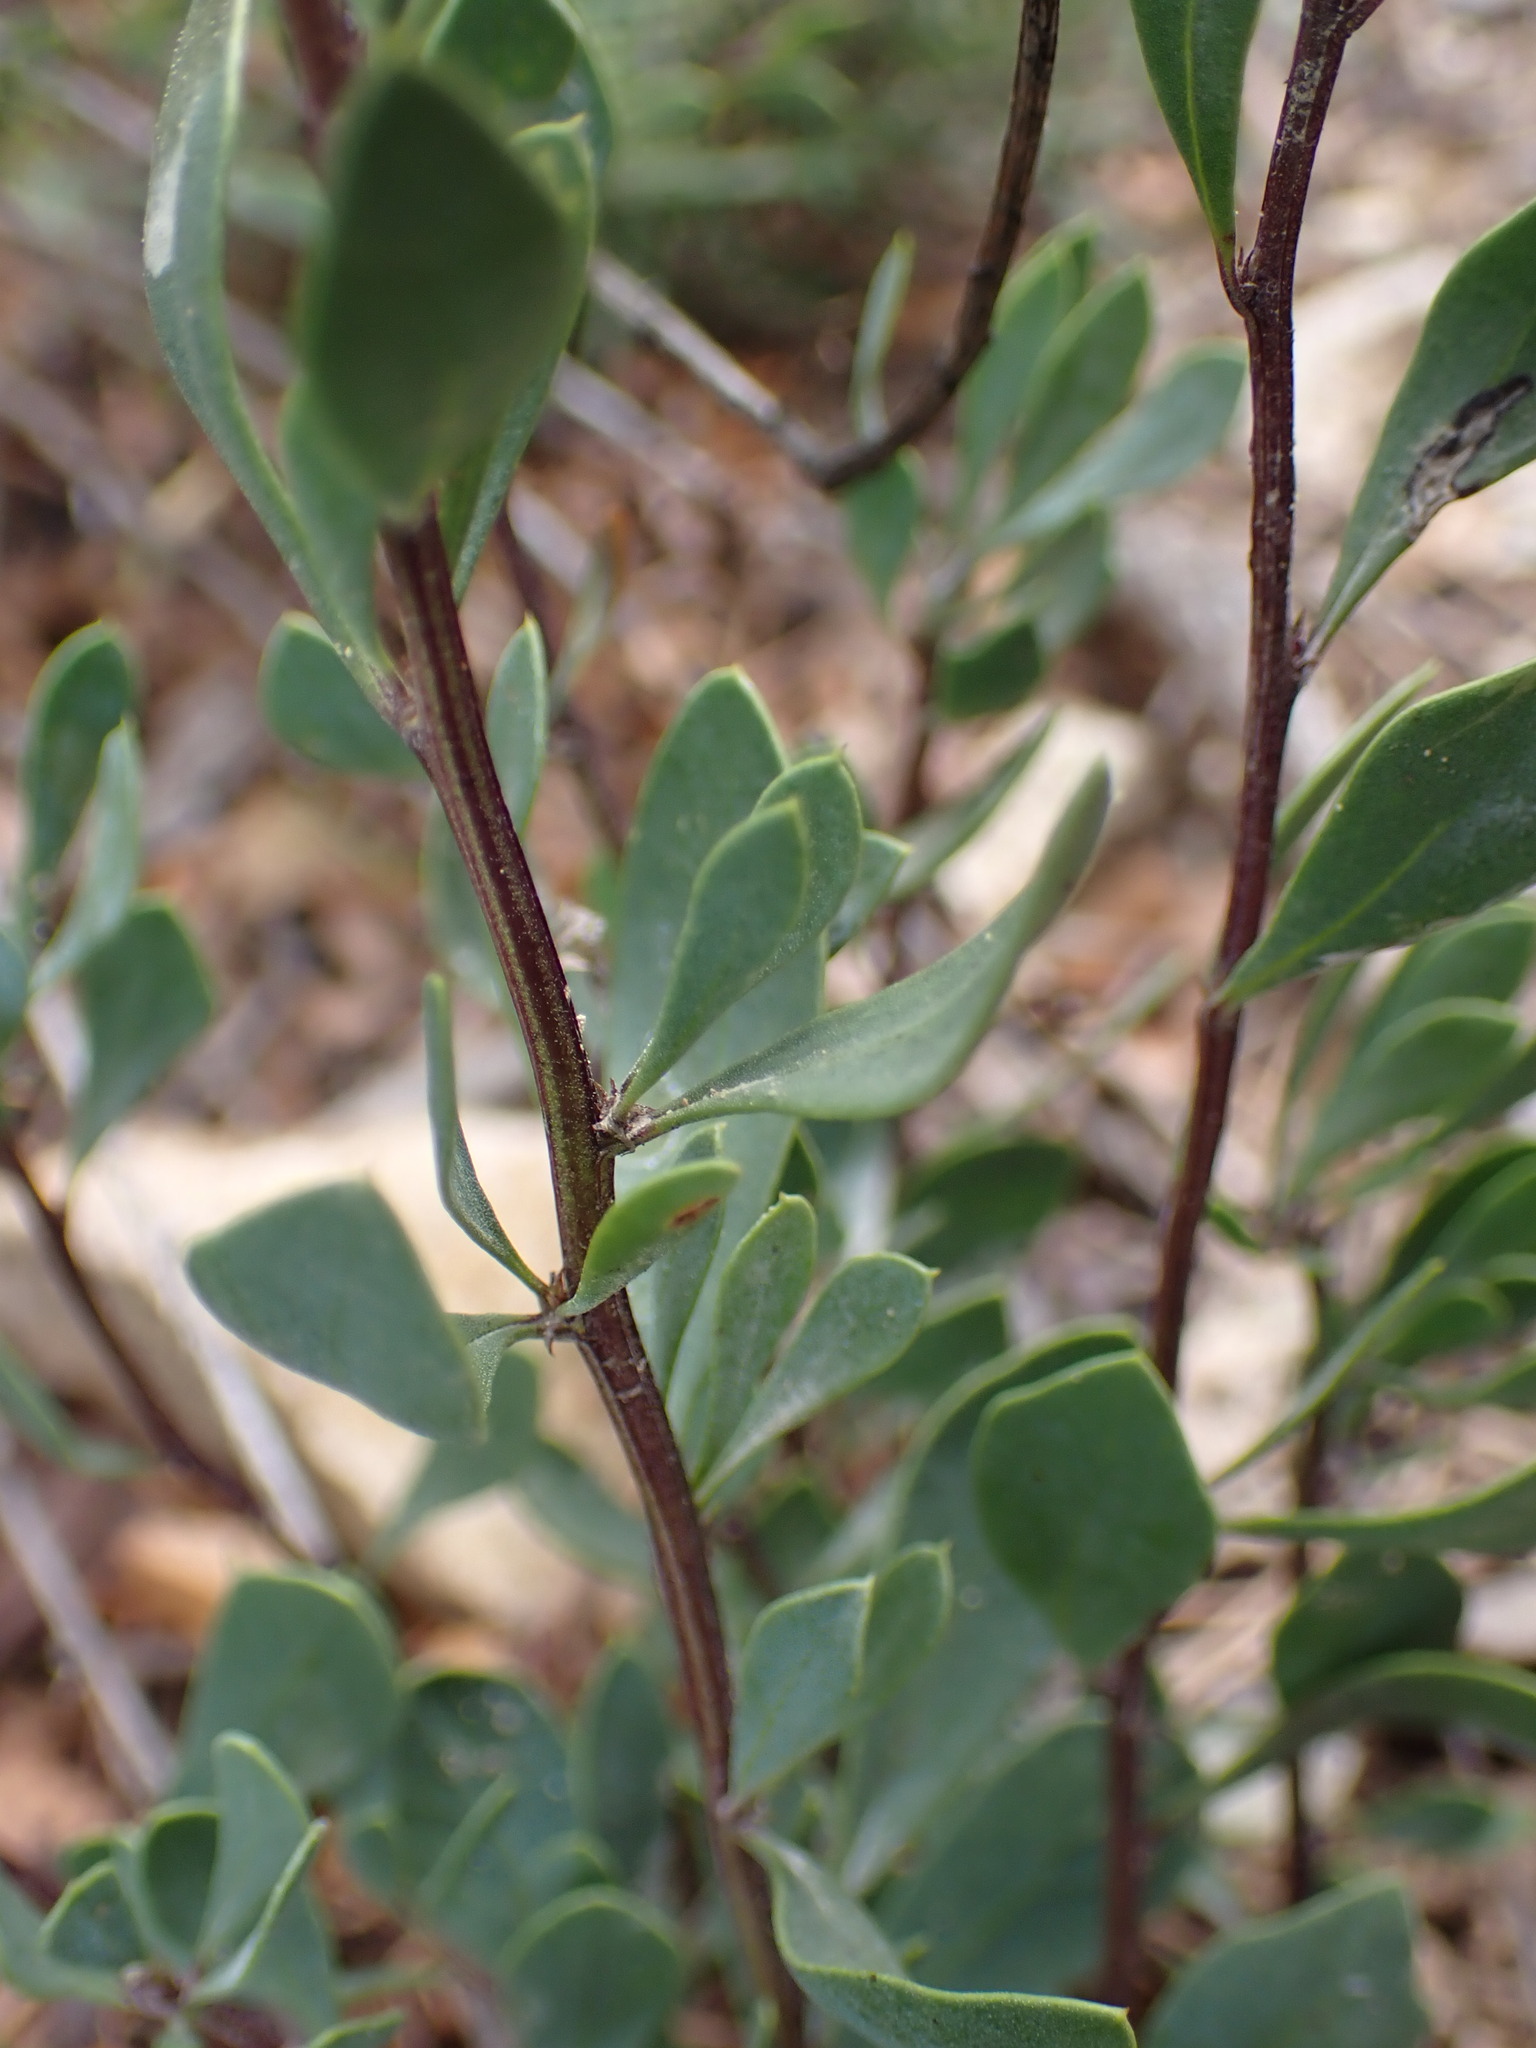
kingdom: Plantae
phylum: Tracheophyta
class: Magnoliopsida
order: Lamiales
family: Plantaginaceae
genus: Globularia
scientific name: Globularia alypum
